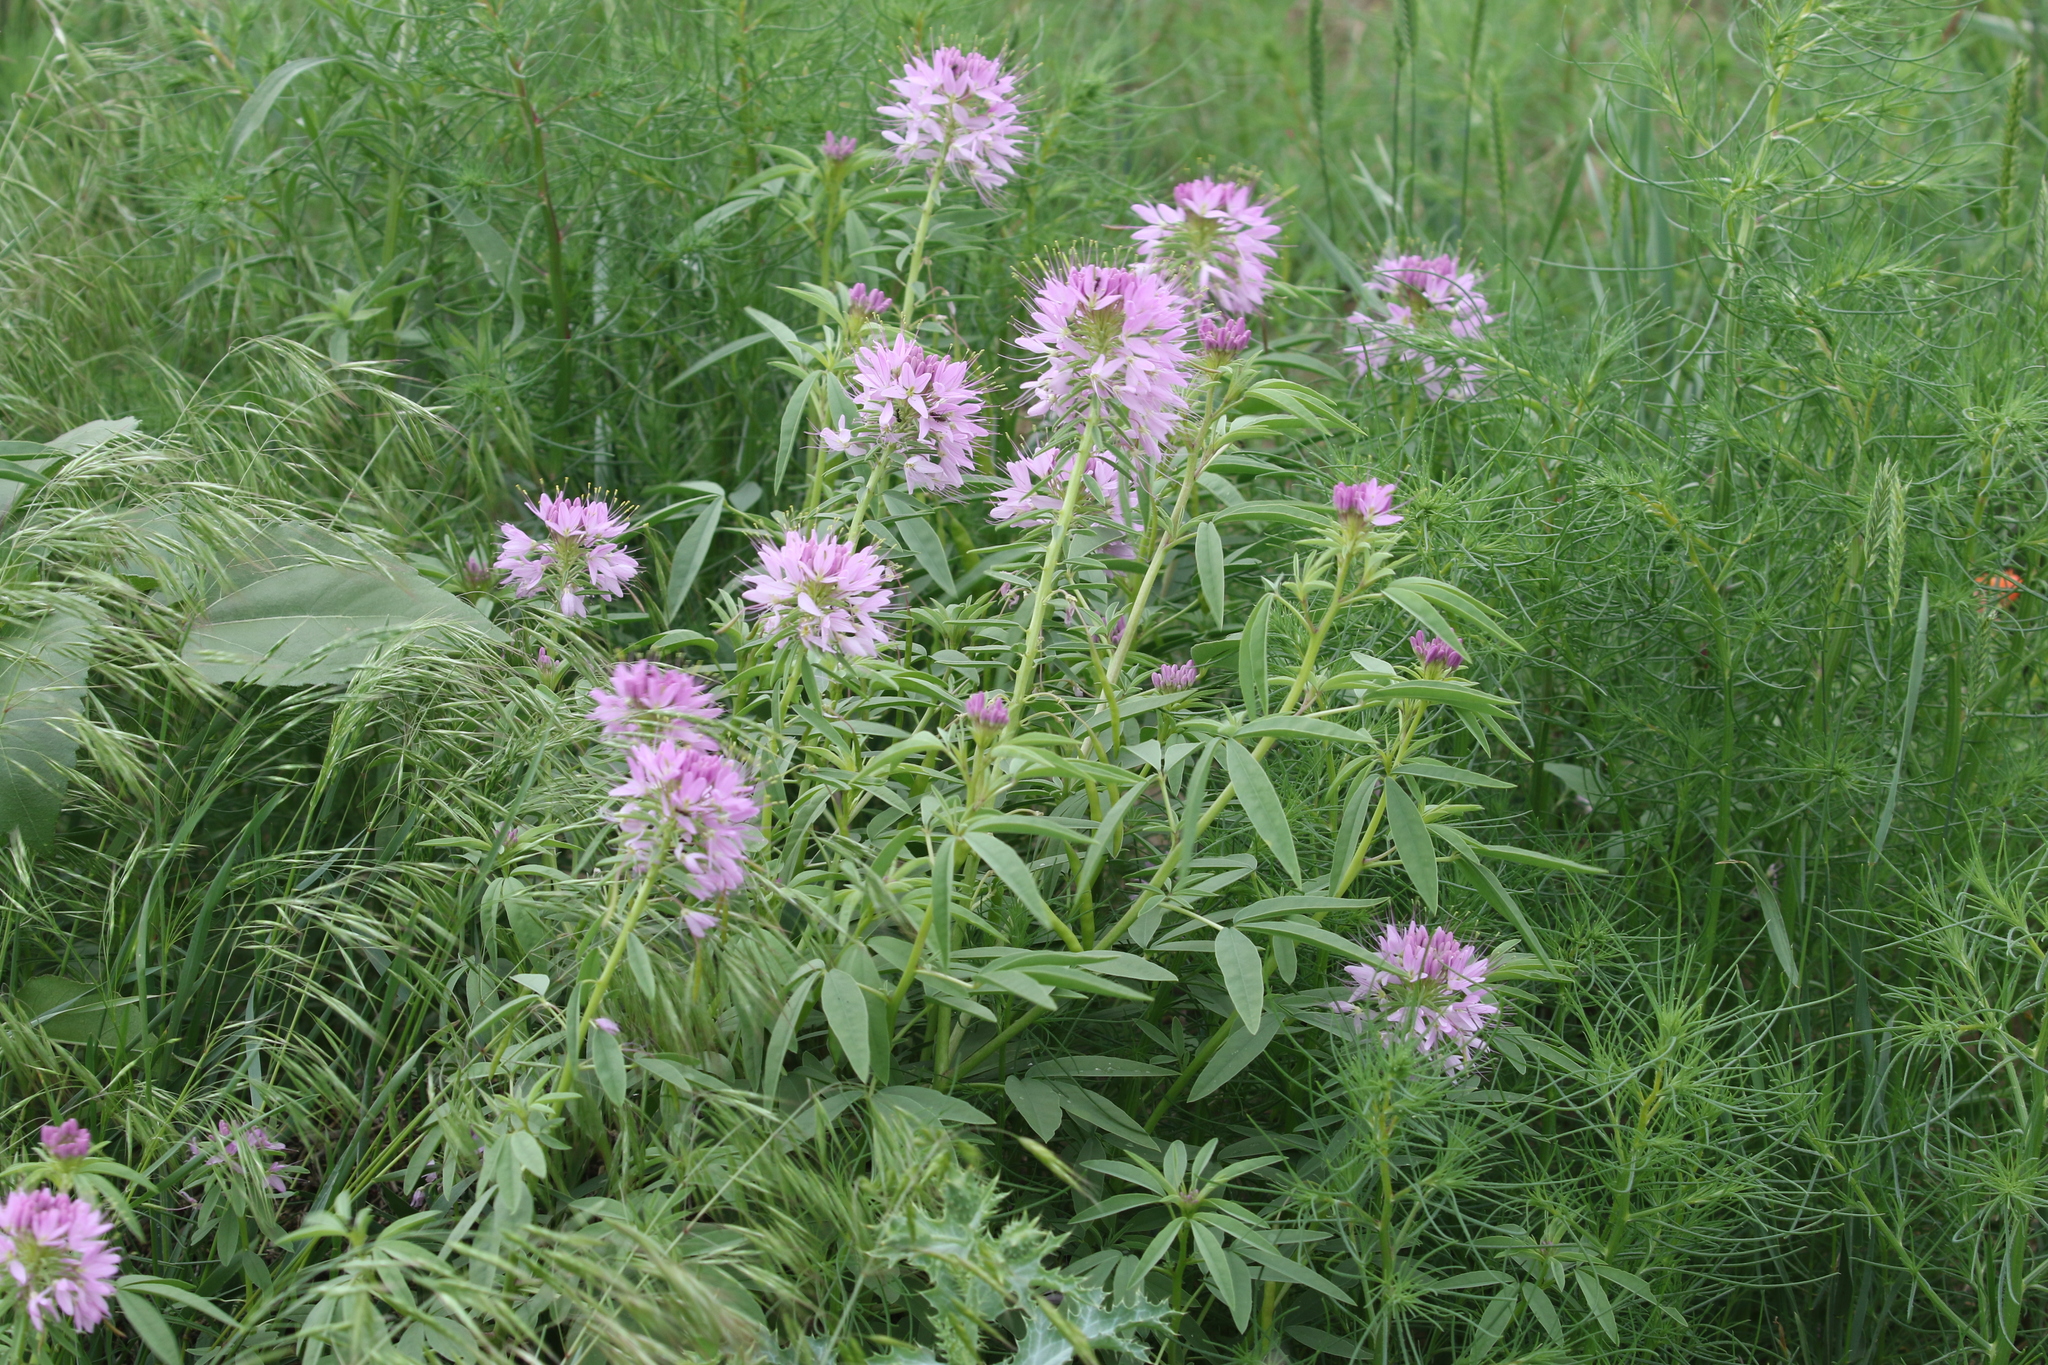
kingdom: Plantae
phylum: Tracheophyta
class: Magnoliopsida
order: Brassicales
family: Cleomaceae
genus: Cleomella
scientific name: Cleomella serrulata
